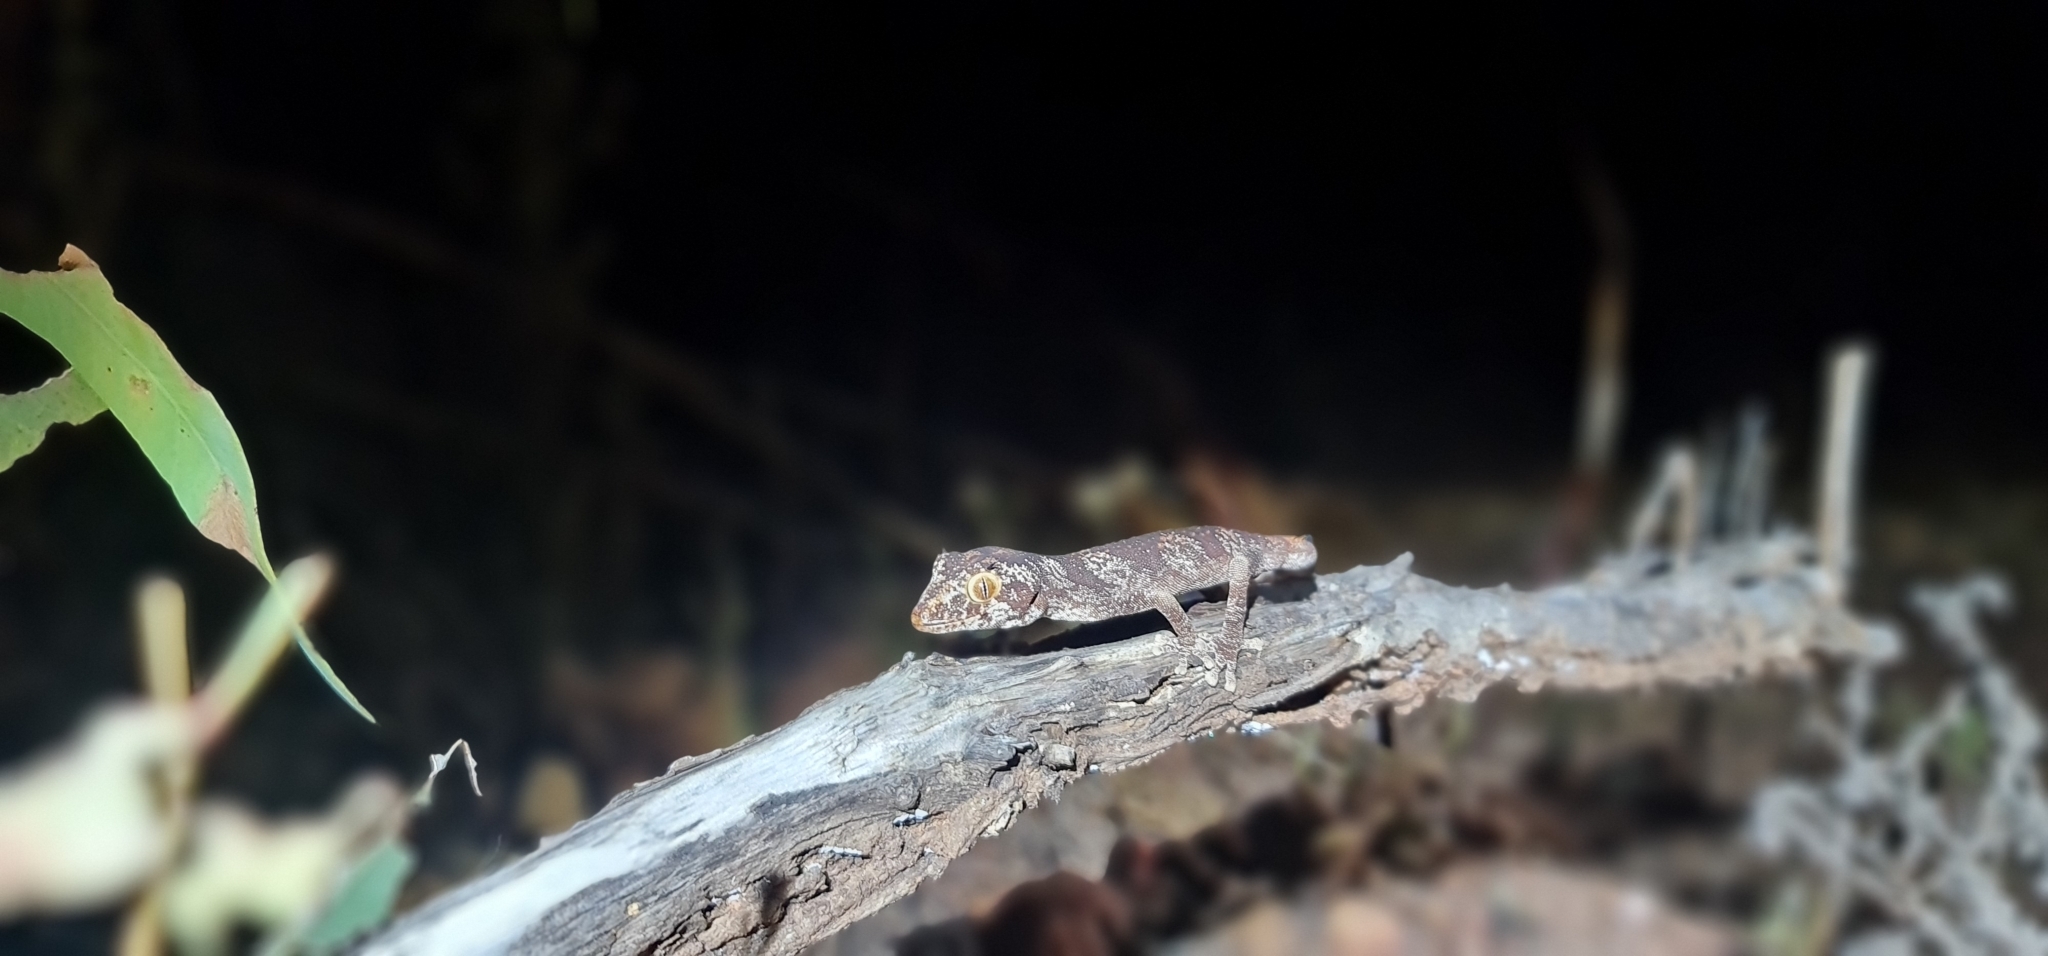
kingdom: Animalia
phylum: Chordata
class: Squamata
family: Diplodactylidae
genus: Strophurus
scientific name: Strophurus ciliaris
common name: Northern spiny-tailed gecko
